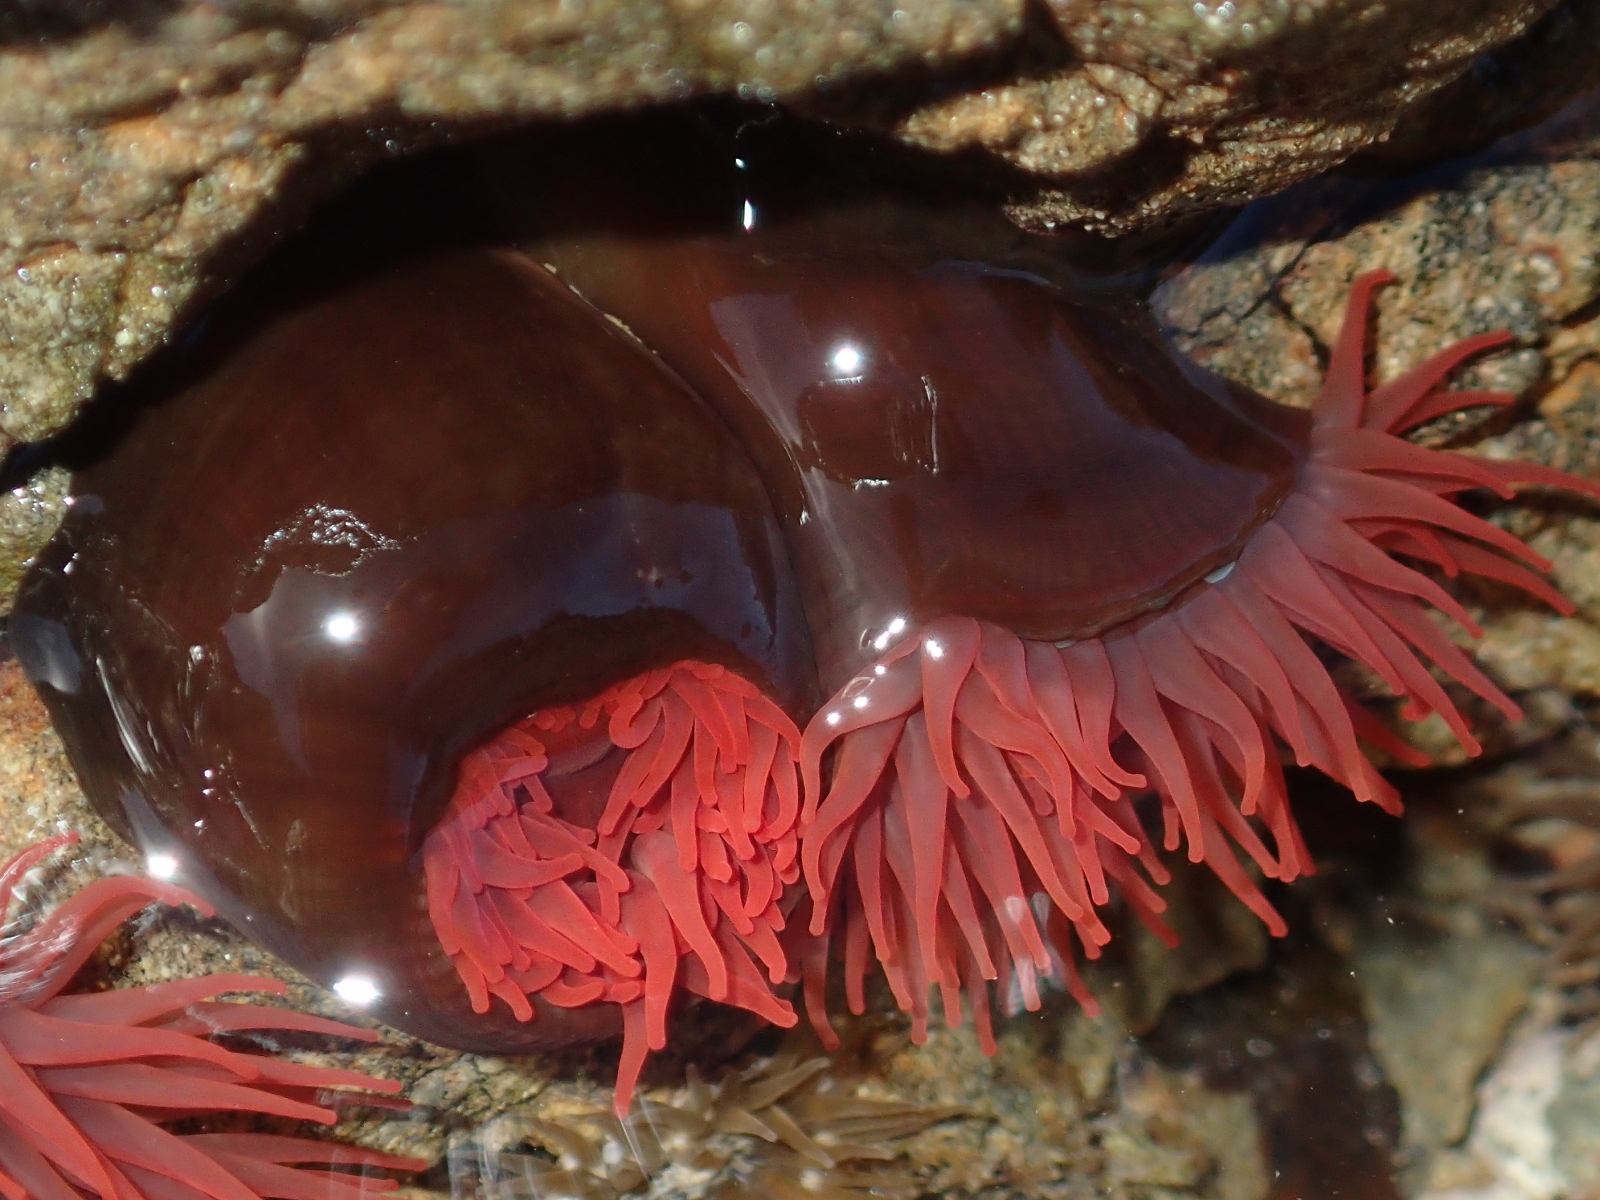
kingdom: Animalia
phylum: Cnidaria
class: Anthozoa
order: Actiniaria
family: Actiniidae
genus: Actinia
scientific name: Actinia tenebrosa
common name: Waratah anemone
